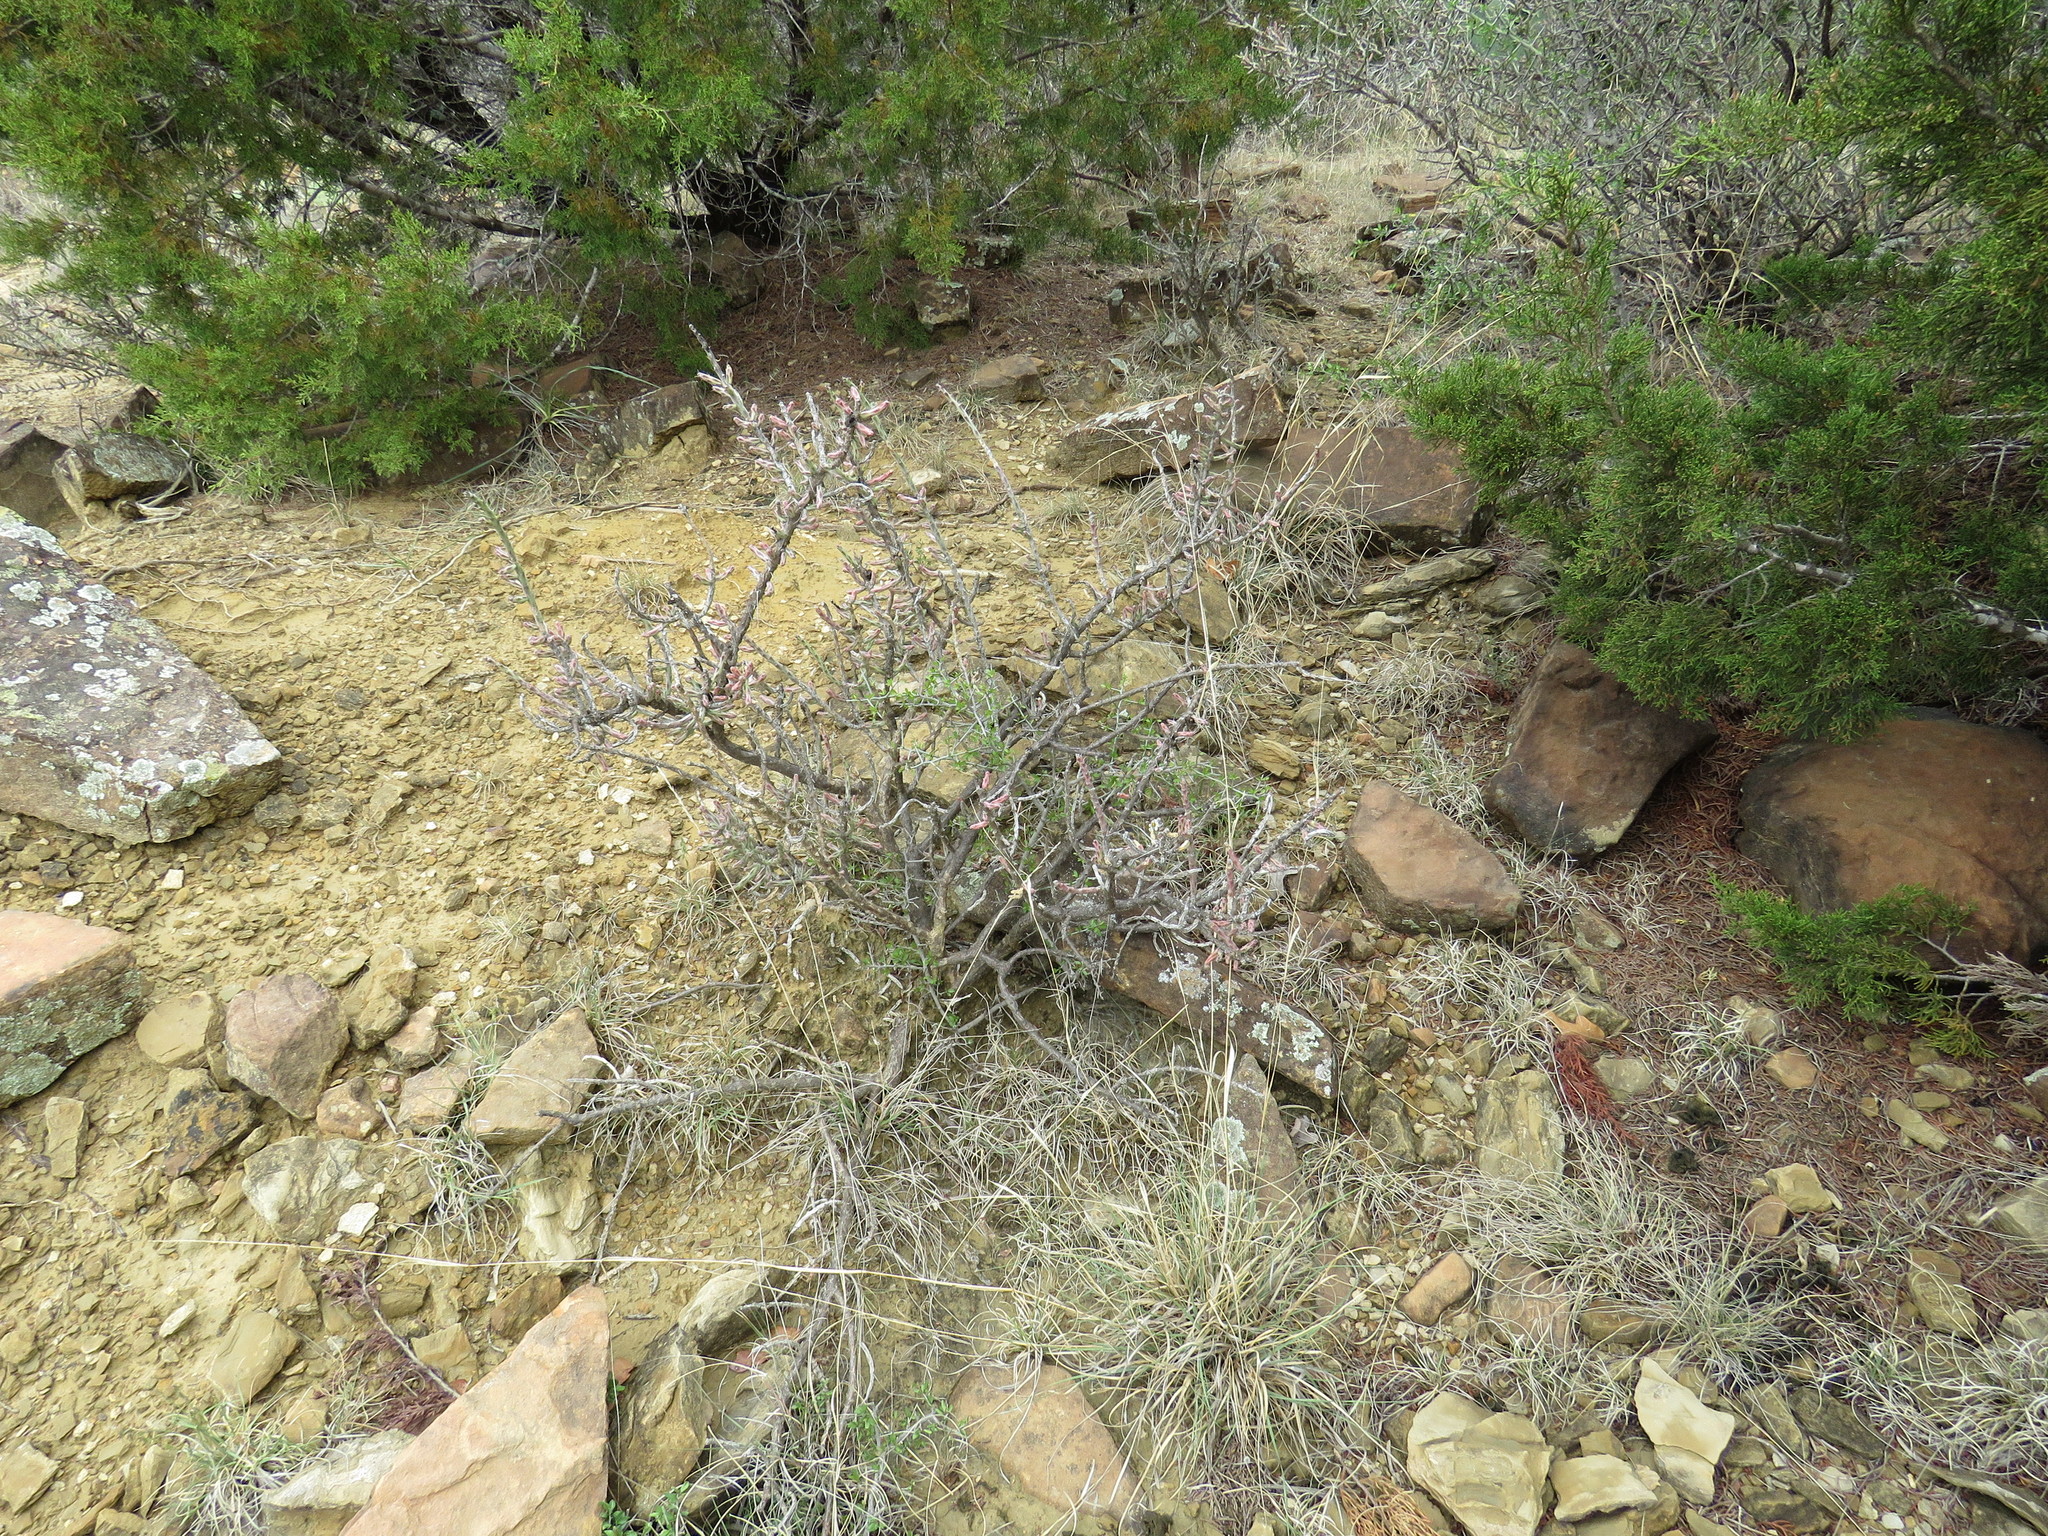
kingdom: Plantae
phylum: Tracheophyta
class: Magnoliopsida
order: Rosales
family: Rhamnaceae
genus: Sarcomphalus
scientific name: Sarcomphalus obtusifolius
